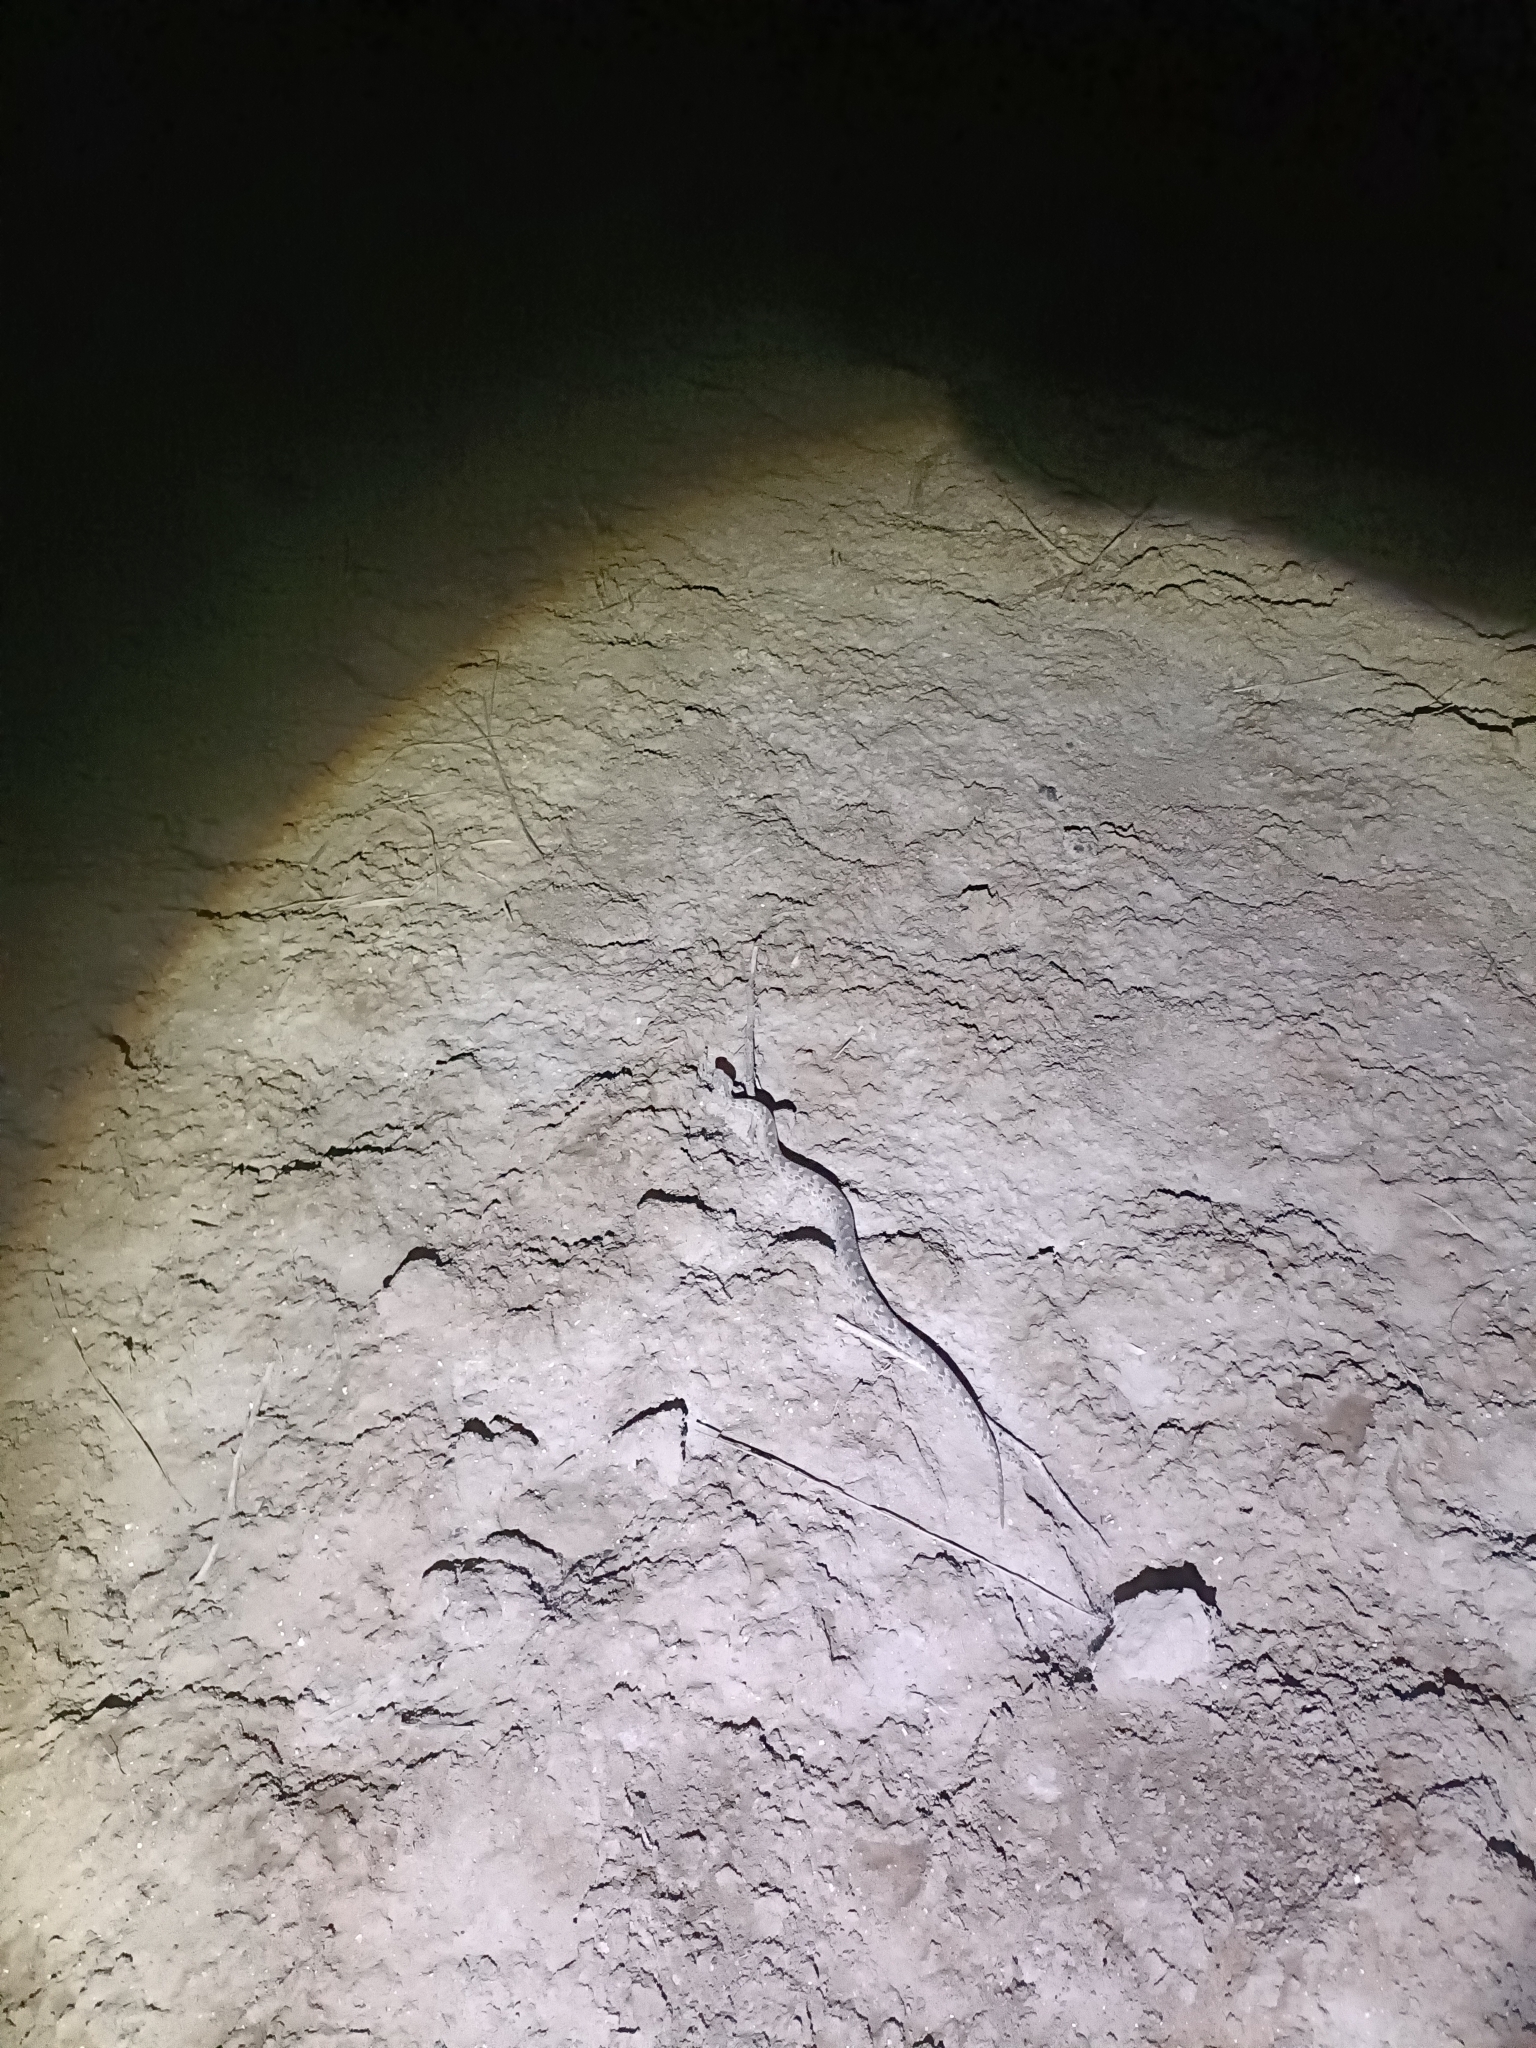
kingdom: Animalia
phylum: Chordata
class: Squamata
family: Viperidae
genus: Echis
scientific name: Echis carinatus
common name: Saw-scaled viper
